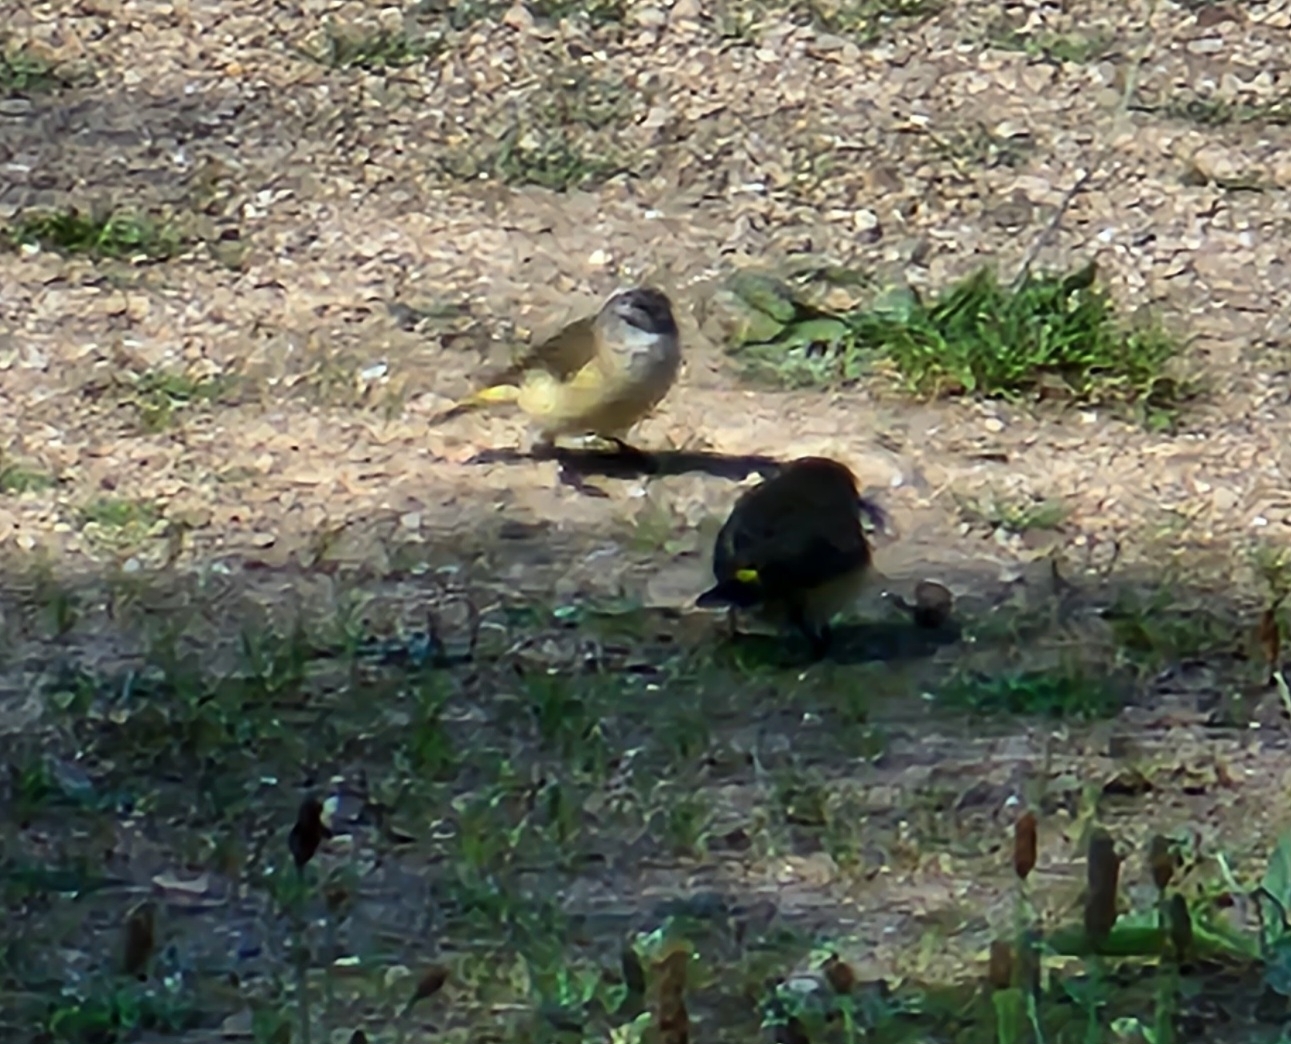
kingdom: Animalia
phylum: Chordata
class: Aves
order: Passeriformes
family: Acanthizidae
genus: Acanthiza
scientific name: Acanthiza chrysorrhoa
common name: Yellow-rumped thornbill
